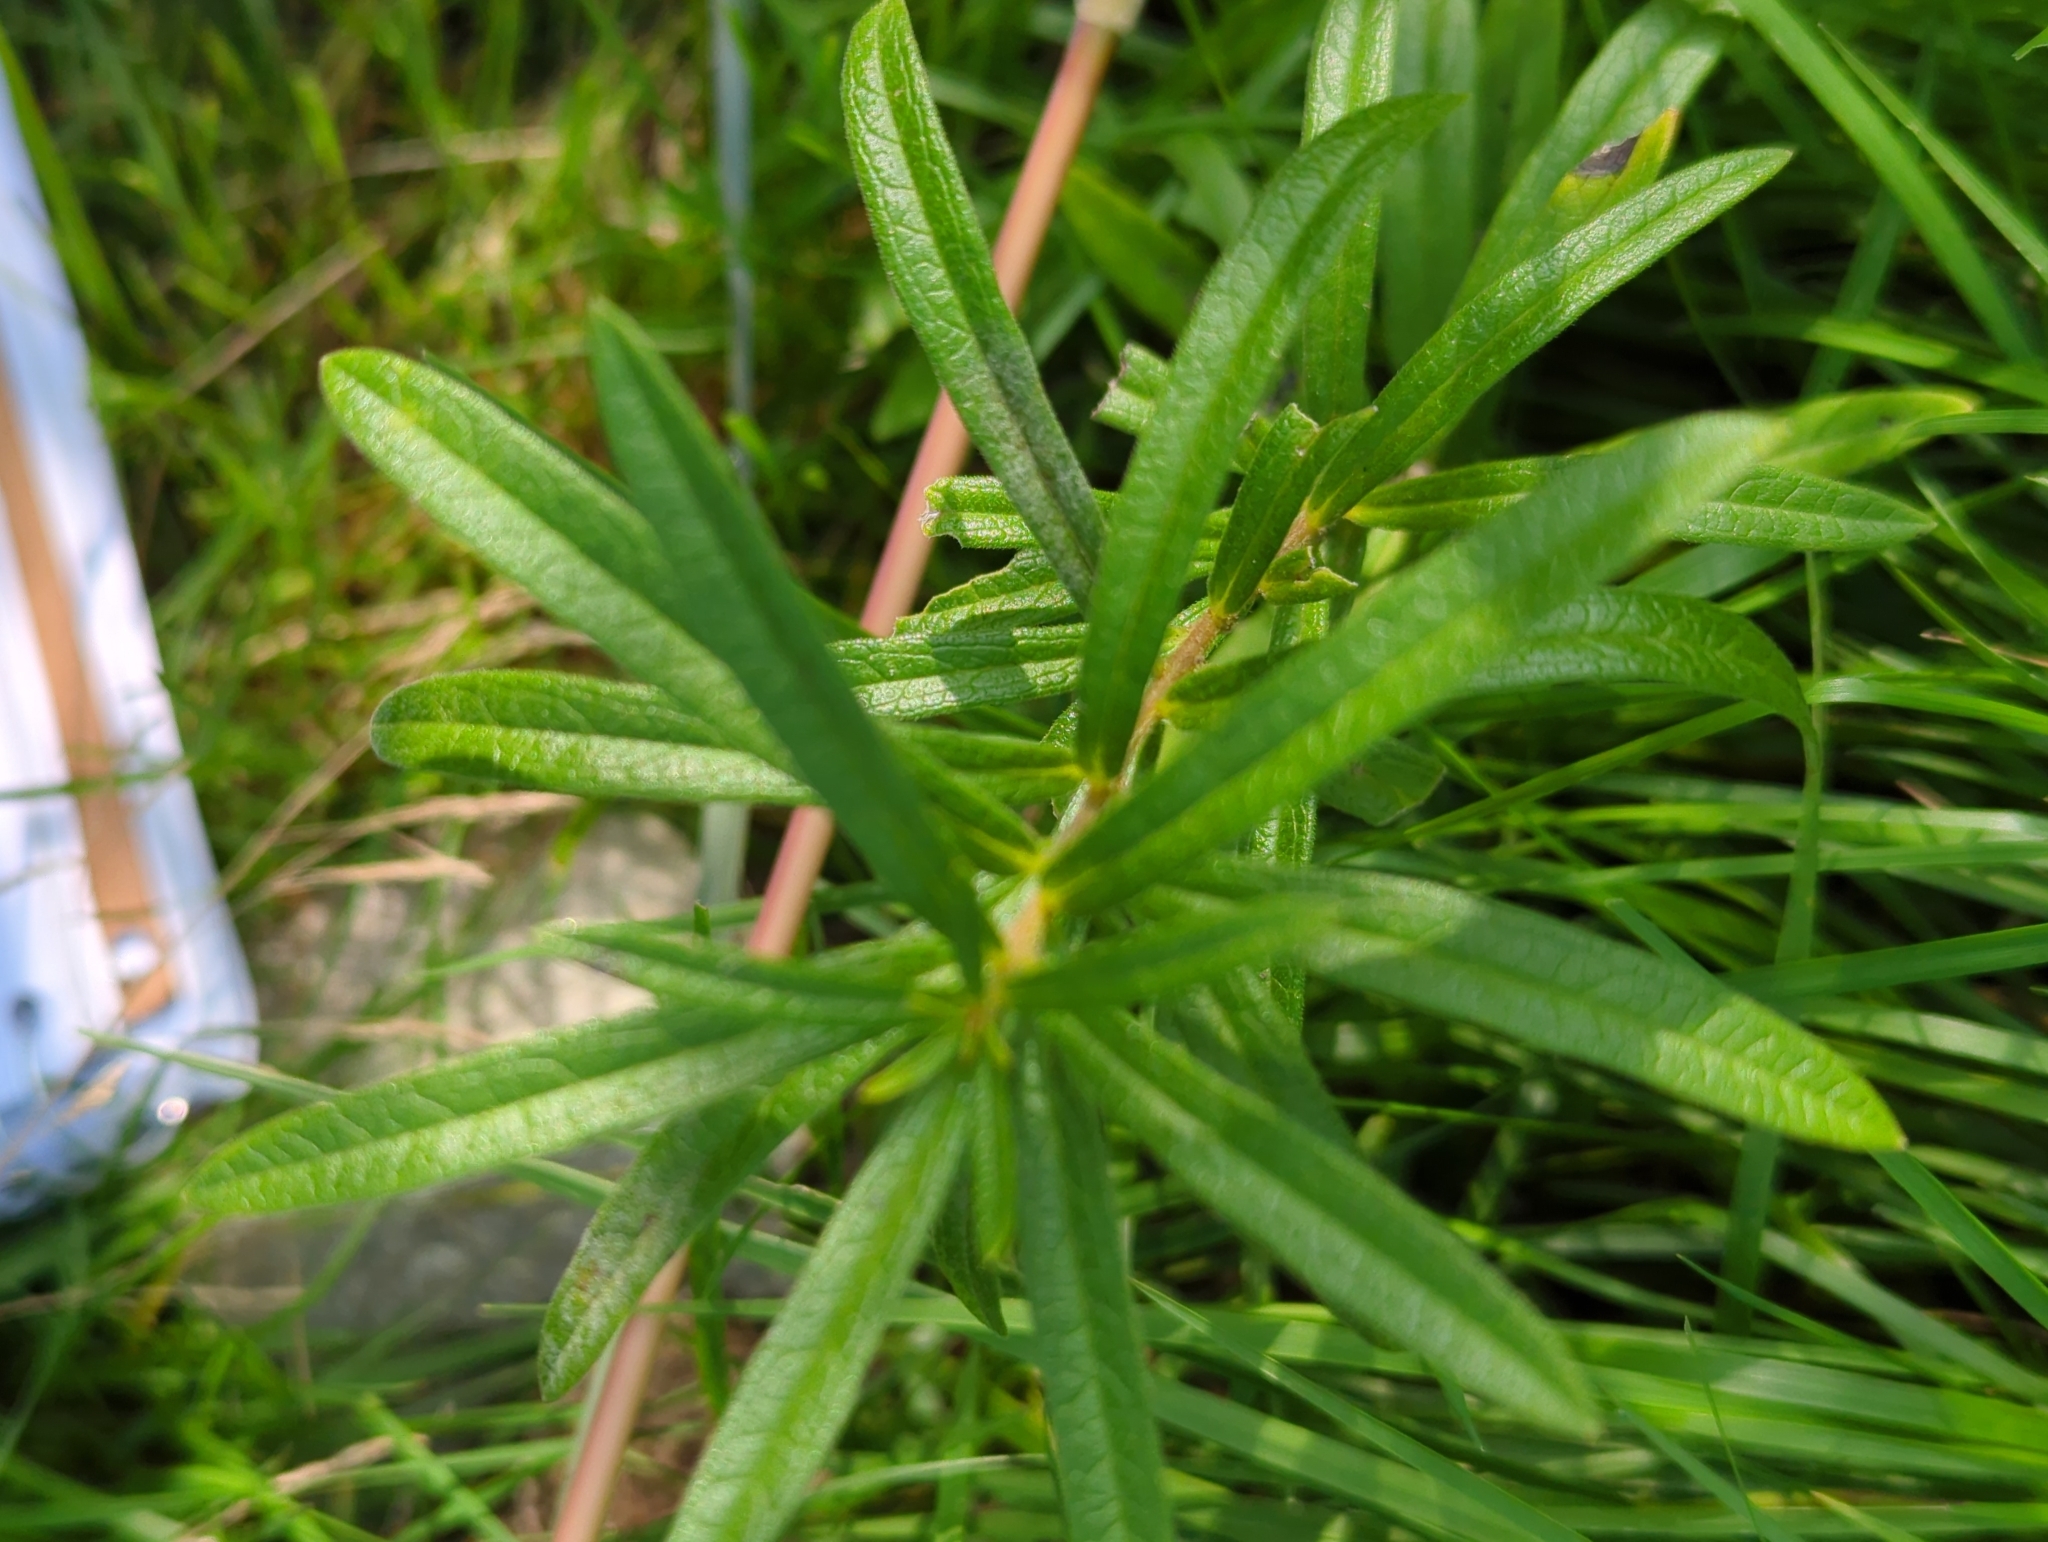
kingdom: Plantae
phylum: Tracheophyta
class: Magnoliopsida
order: Gentianales
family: Apocynaceae
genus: Asclepias
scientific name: Asclepias tuberosa
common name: Butterfly milkweed
